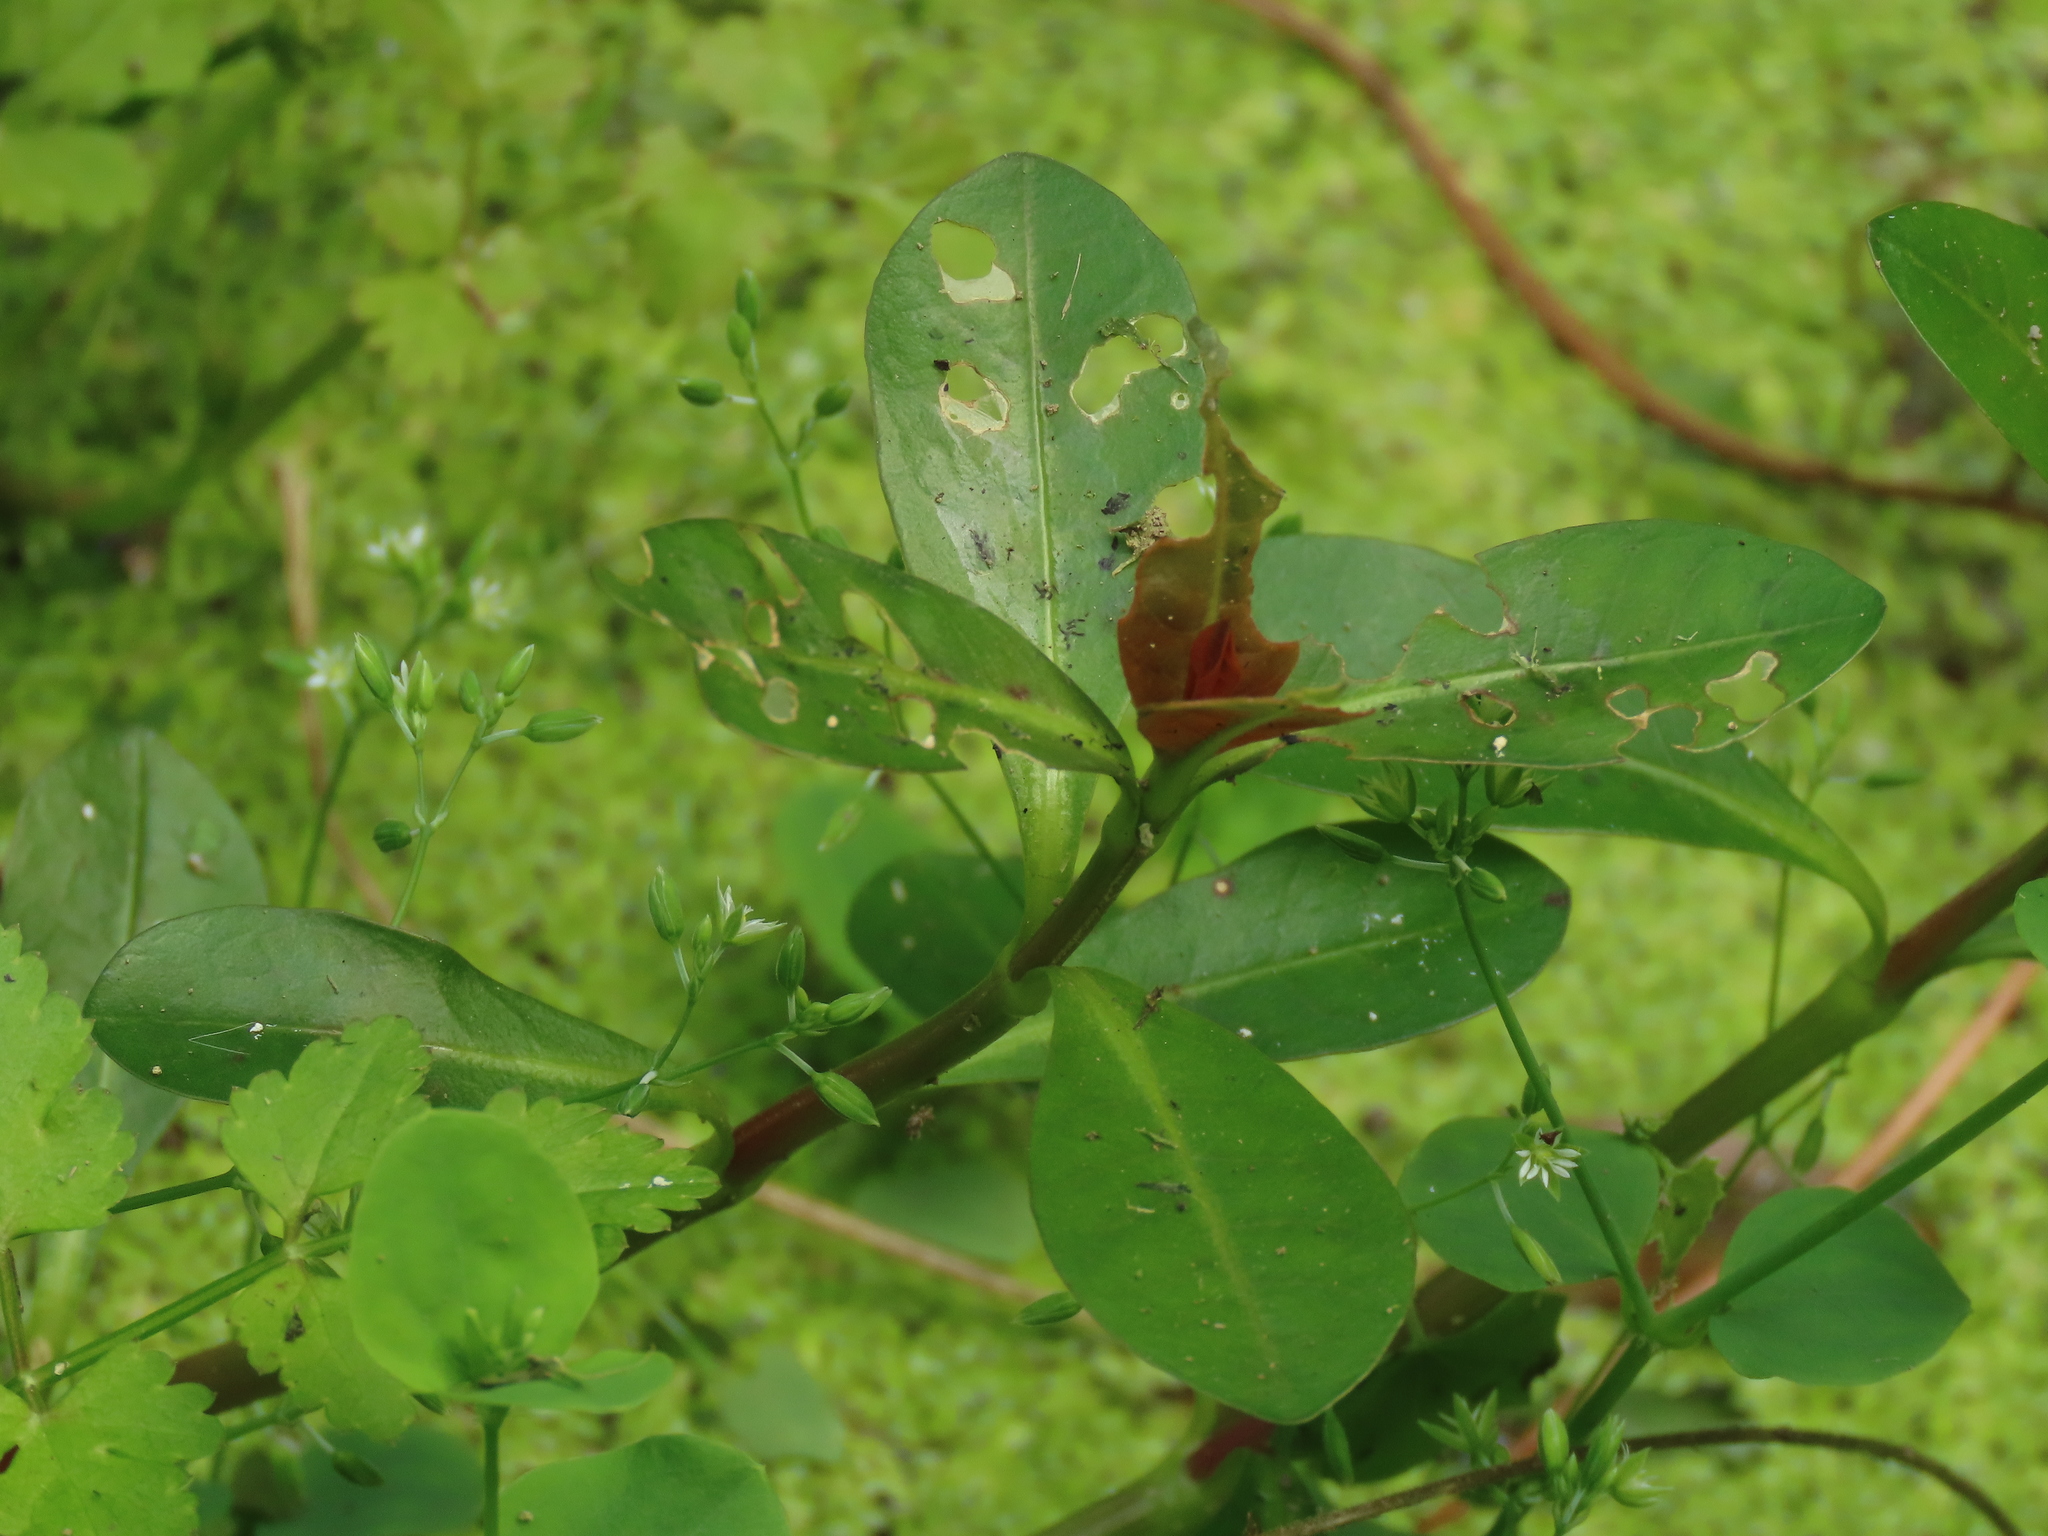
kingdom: Plantae
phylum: Tracheophyta
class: Magnoliopsida
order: Caryophyllales
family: Amaranthaceae
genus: Alternanthera
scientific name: Alternanthera philoxeroides
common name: Alligatorweed
